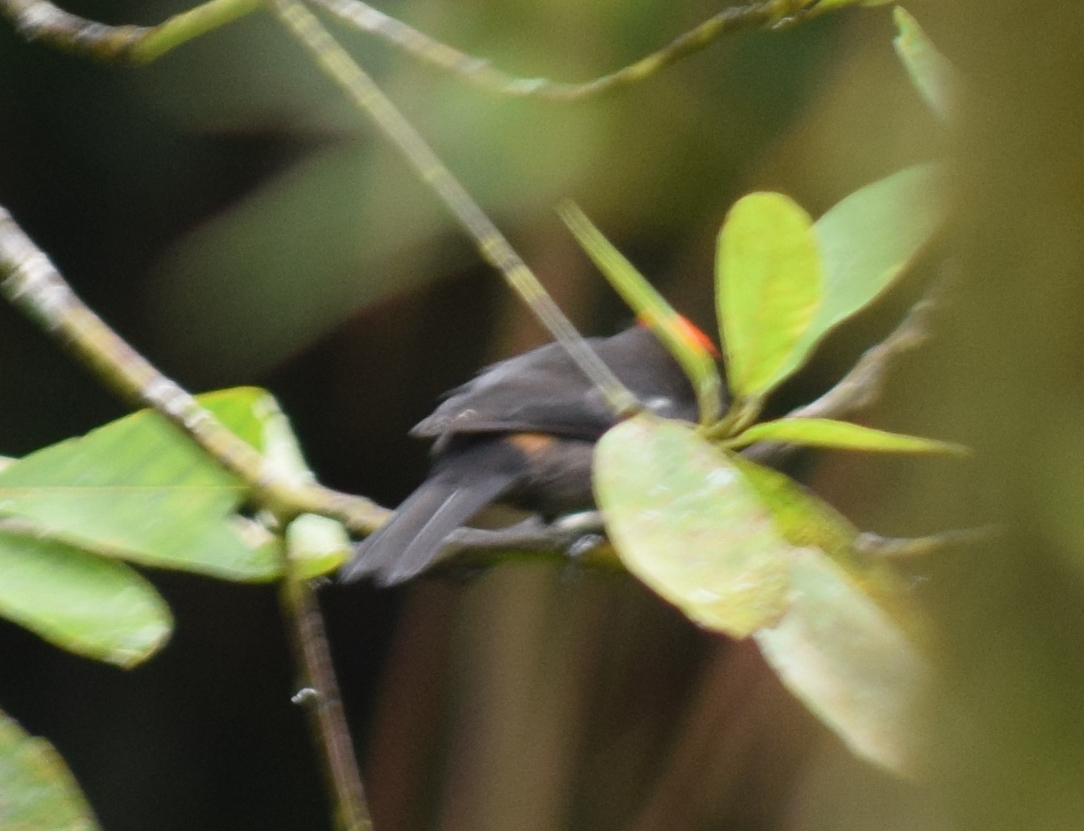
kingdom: Animalia
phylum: Chordata
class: Aves
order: Passeriformes
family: Thraupidae
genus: Loriotus
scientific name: Loriotus cristatus
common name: Flame-crested tanager
